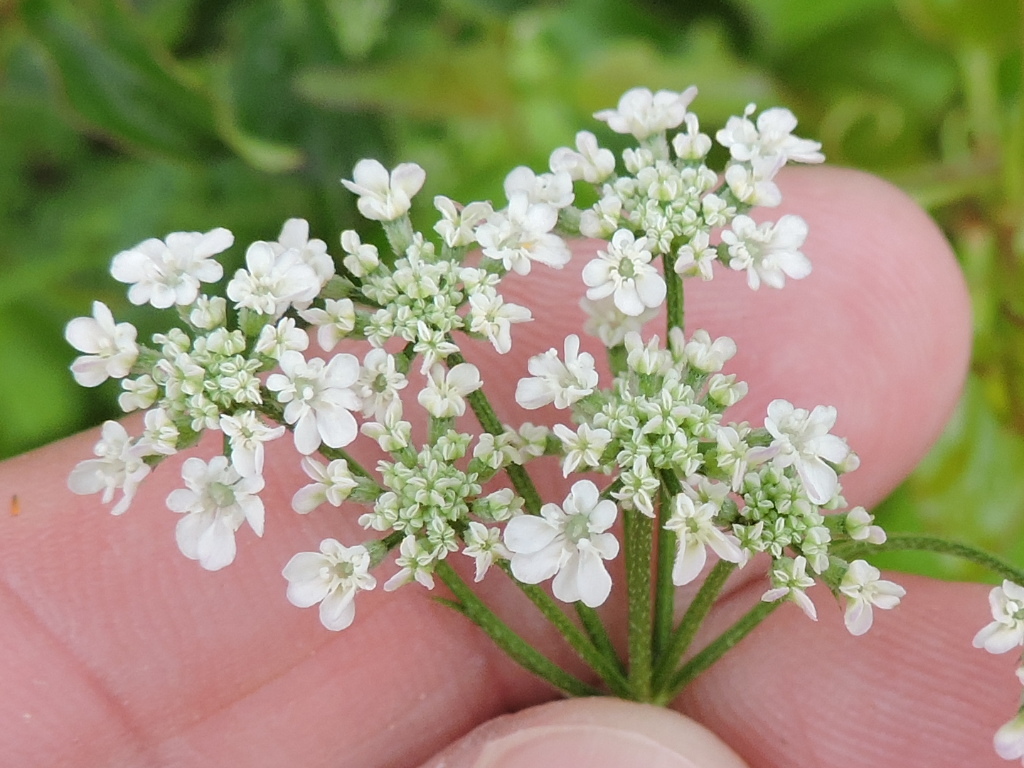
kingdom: Plantae
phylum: Tracheophyta
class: Magnoliopsida
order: Apiales
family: Apiaceae
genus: Torilis
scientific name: Torilis arvensis
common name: Spreading hedge-parsley
